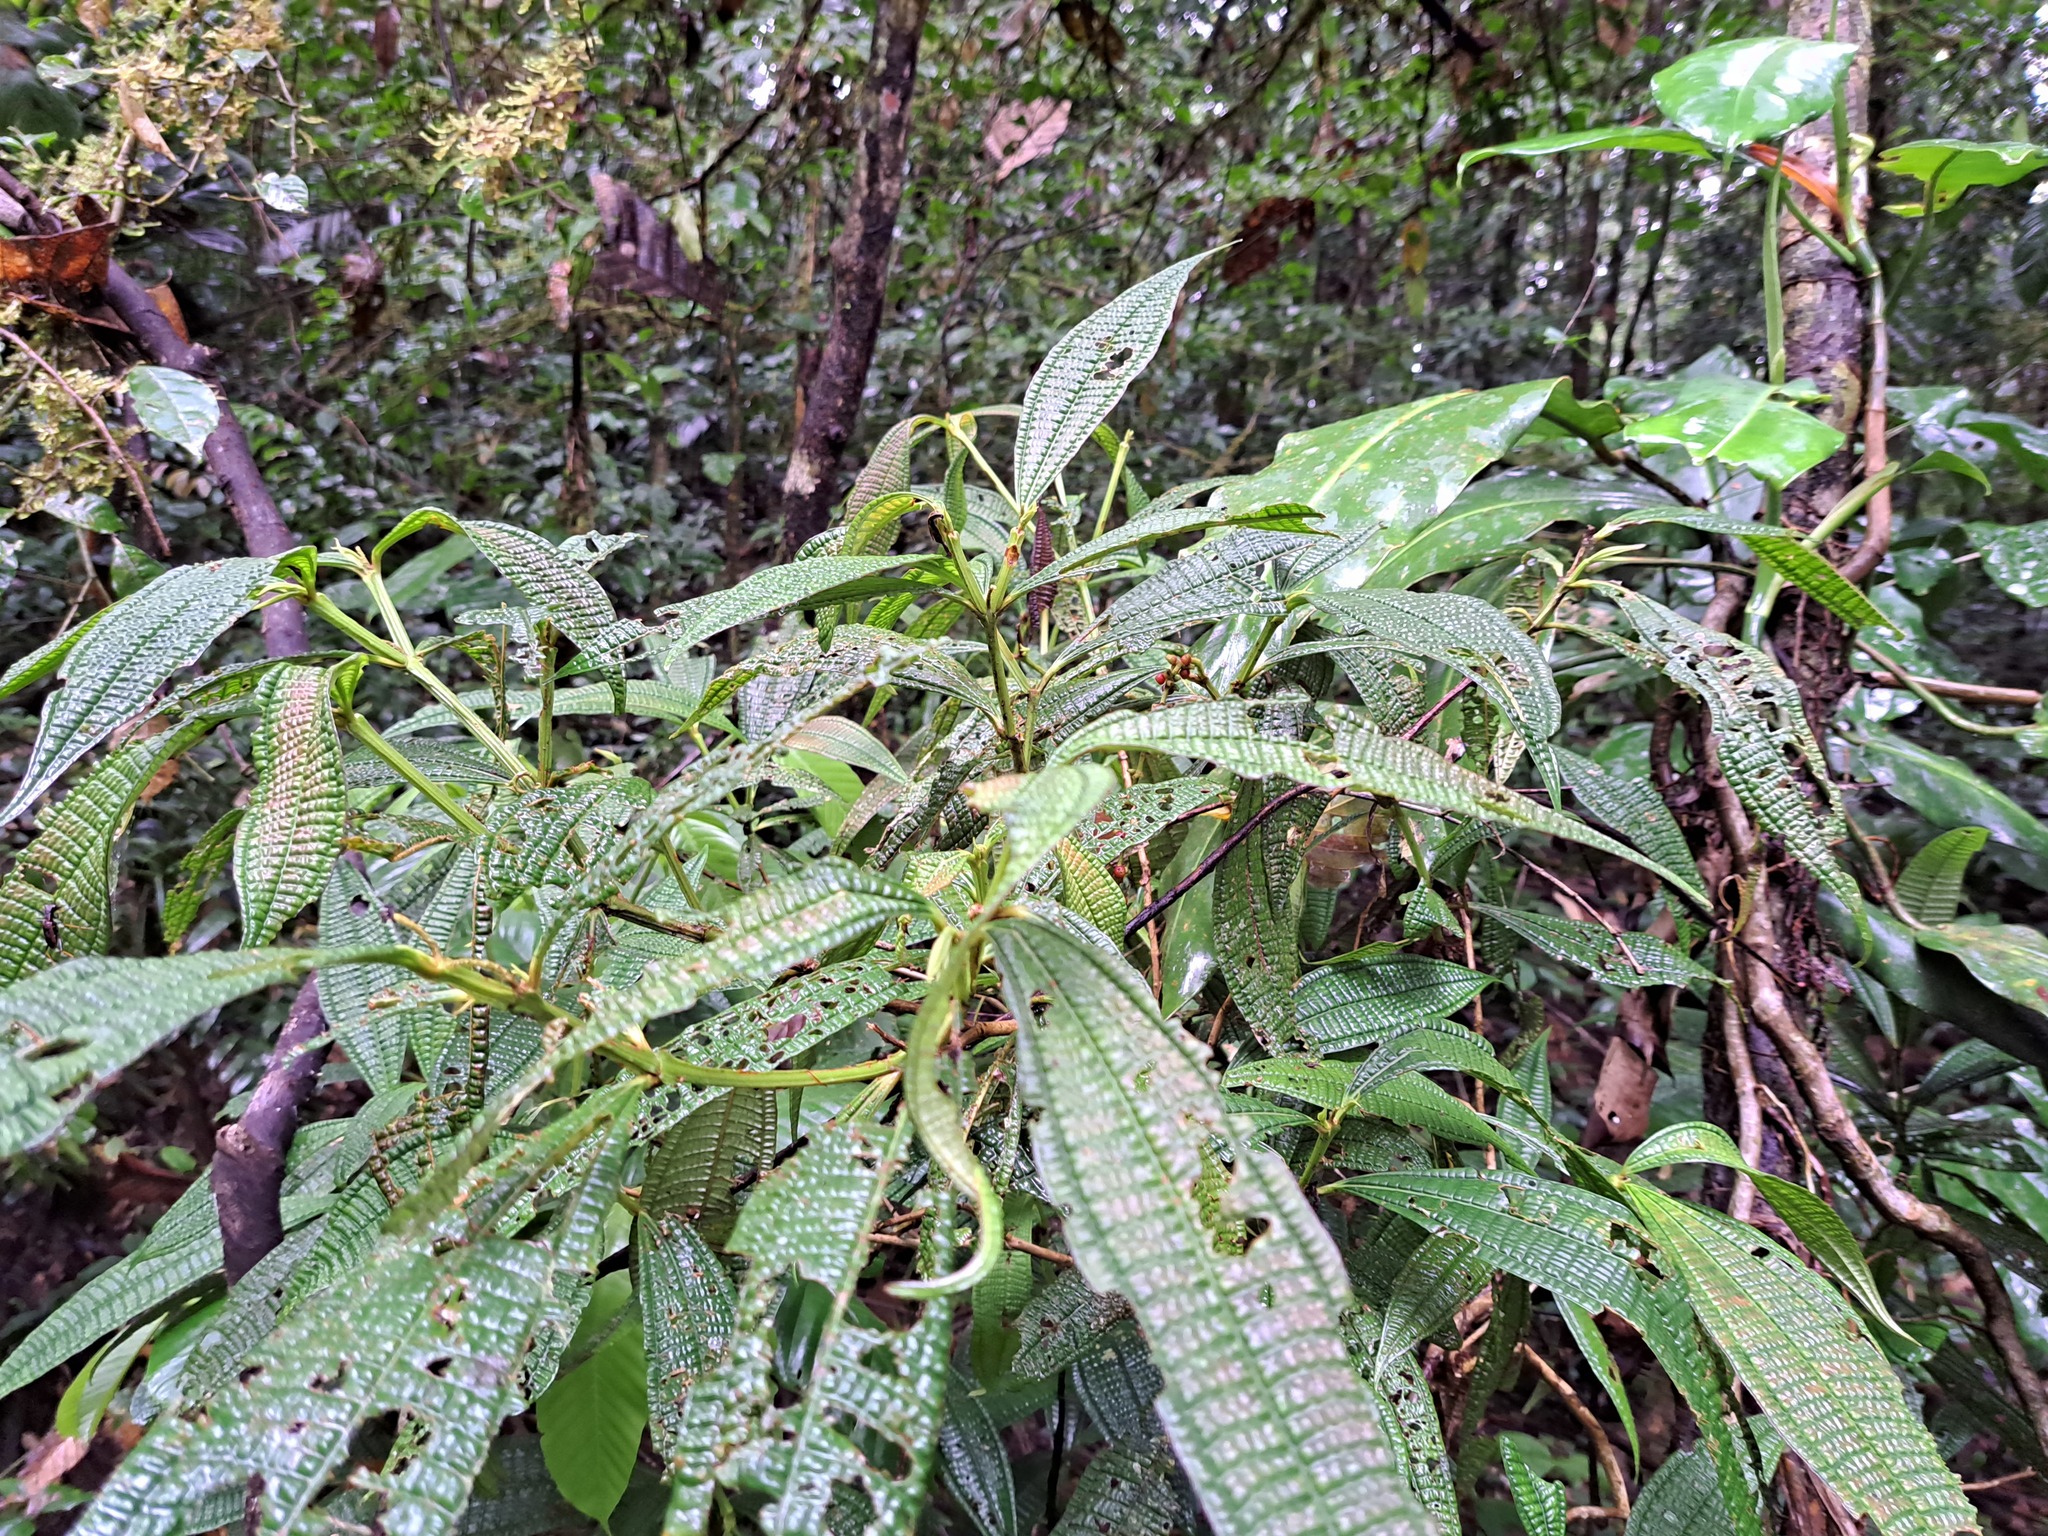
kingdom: Plantae
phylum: Tracheophyta
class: Magnoliopsida
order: Myrtales
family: Melastomataceae
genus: Miconia
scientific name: Miconia triplinervis
